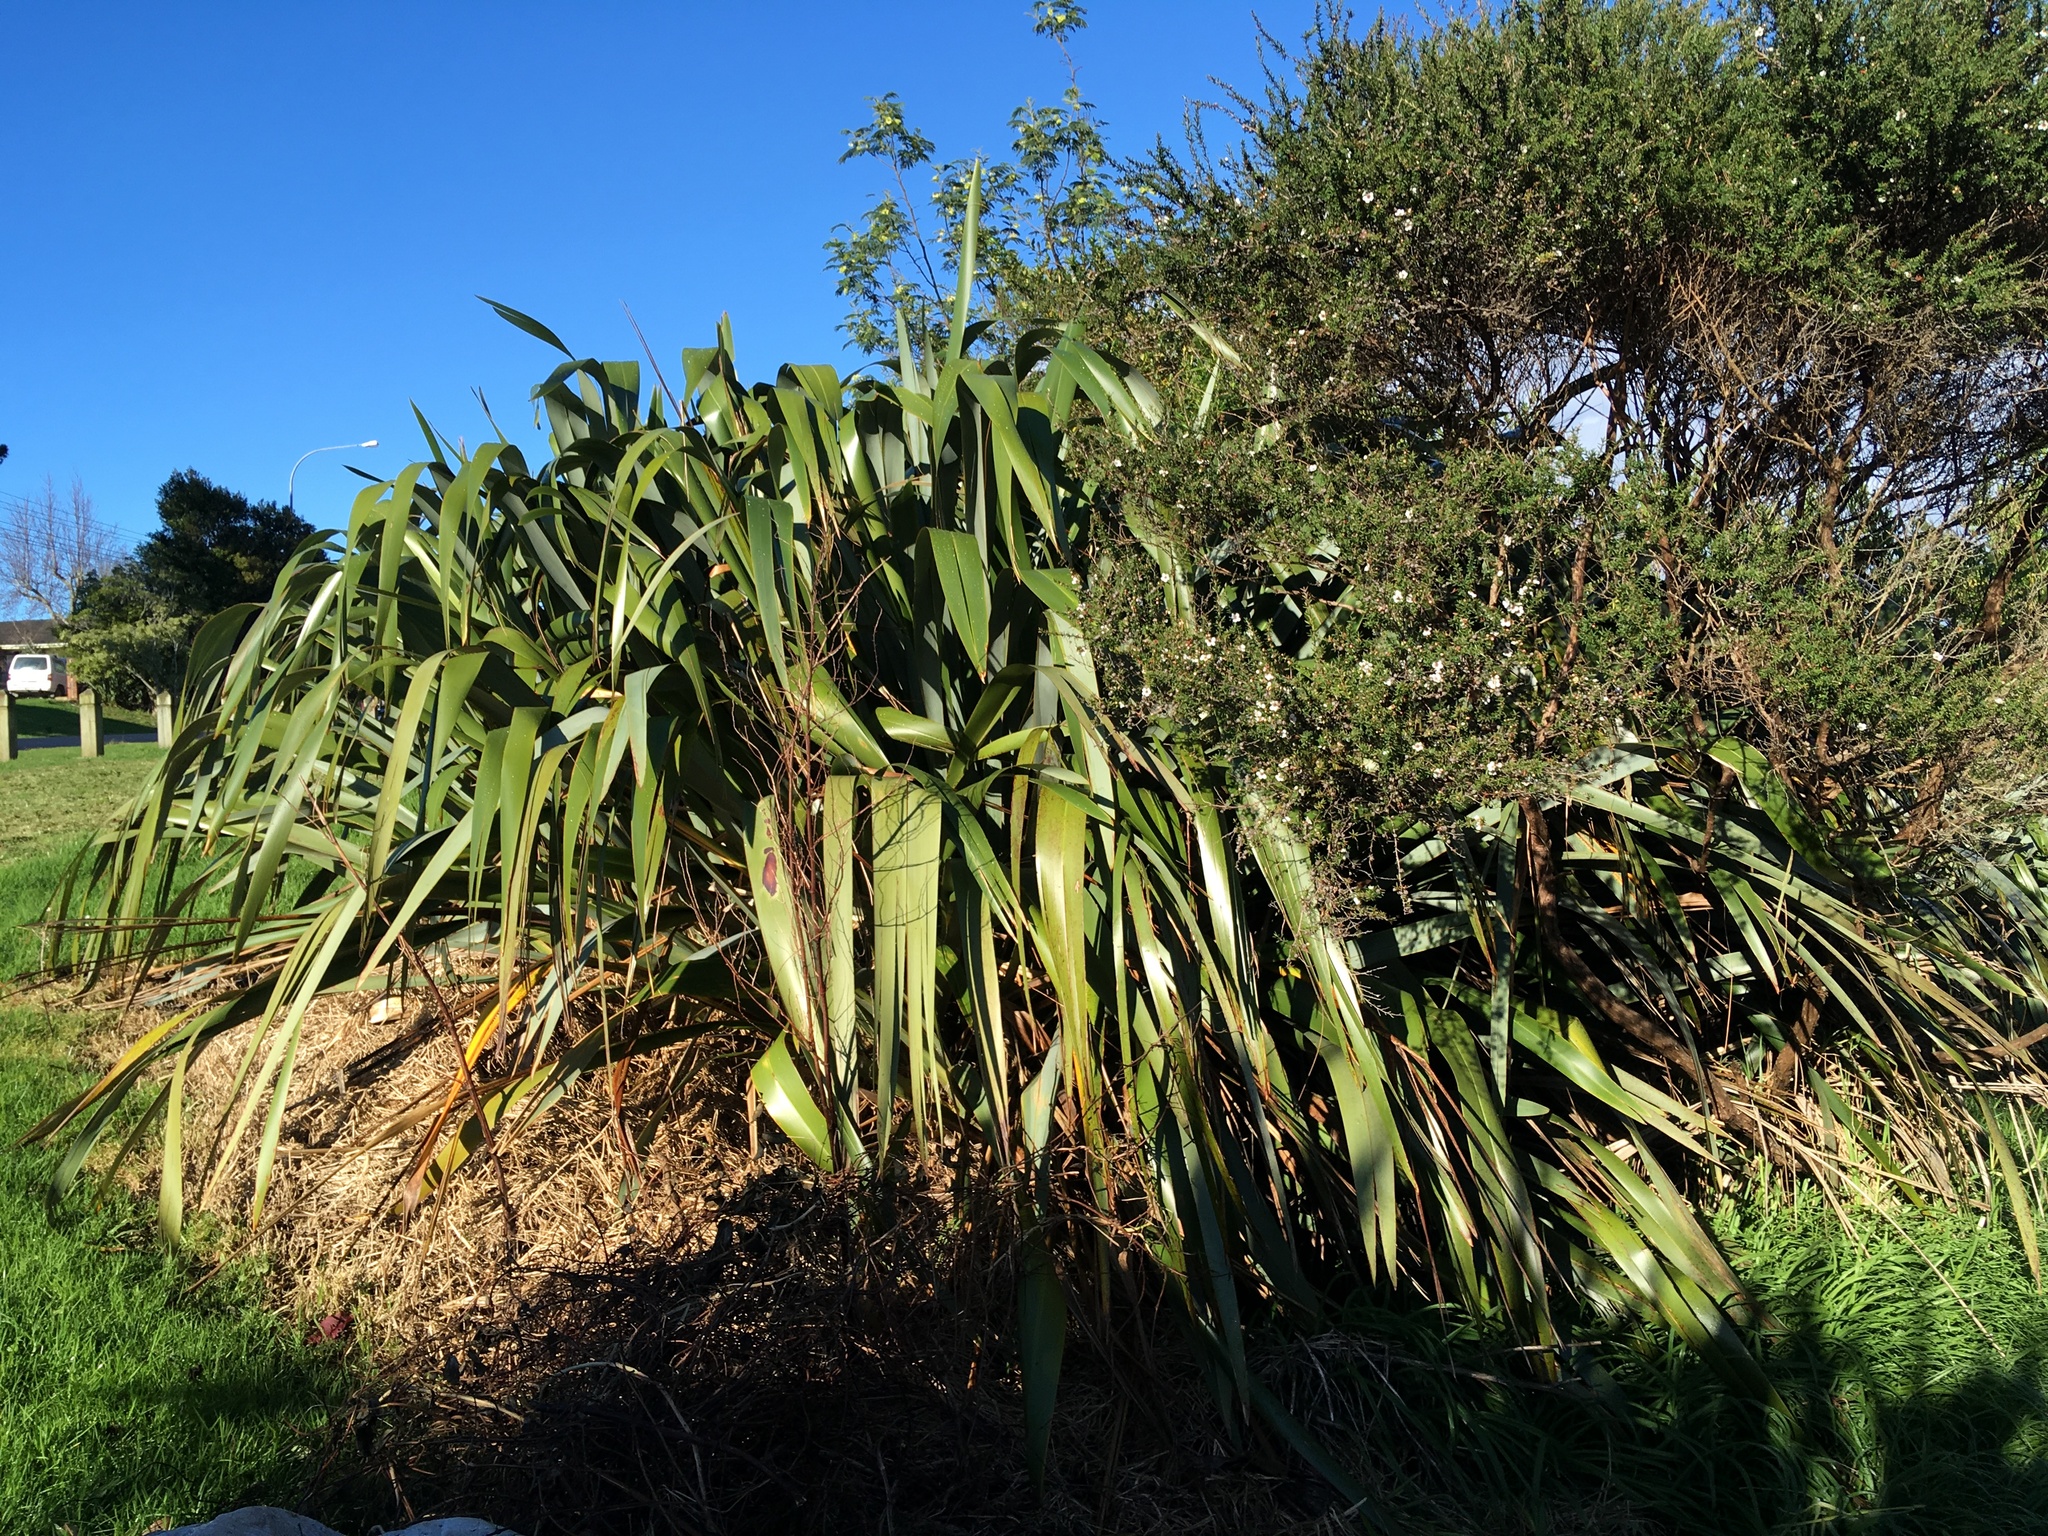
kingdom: Plantae
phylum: Tracheophyta
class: Magnoliopsida
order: Myrtales
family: Myrtaceae
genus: Leptospermum
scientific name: Leptospermum scoparium
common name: Broom tea-tree
